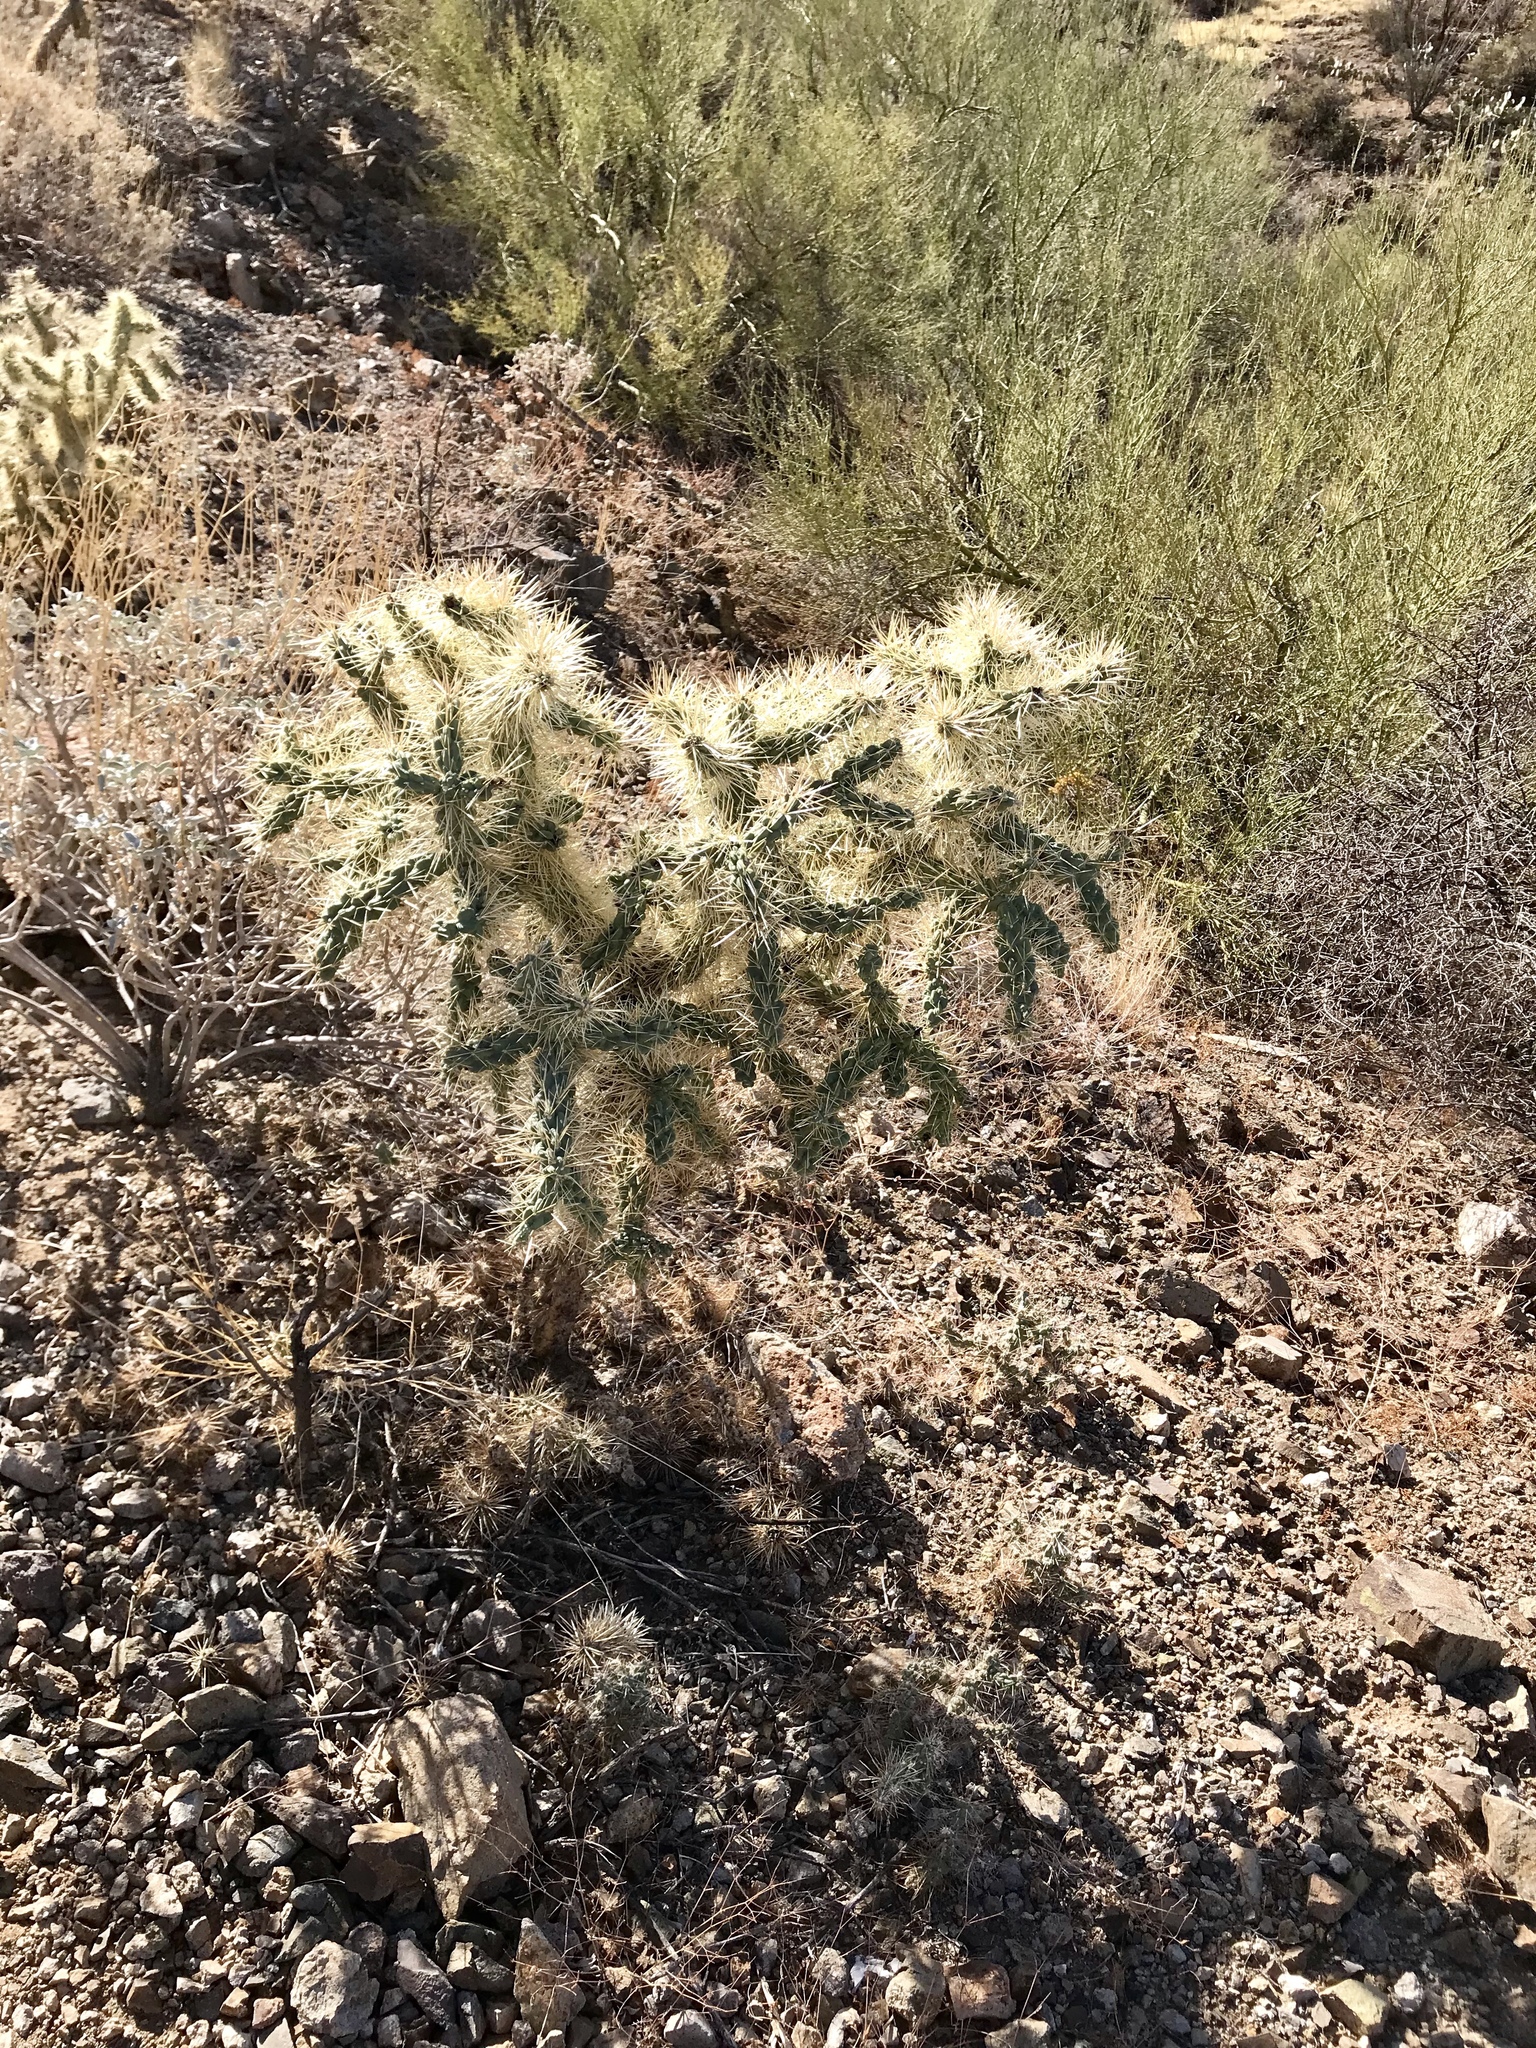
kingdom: Plantae
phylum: Tracheophyta
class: Magnoliopsida
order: Caryophyllales
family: Cactaceae
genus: Cylindropuntia
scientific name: Cylindropuntia fulgida
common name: Jumping cholla
